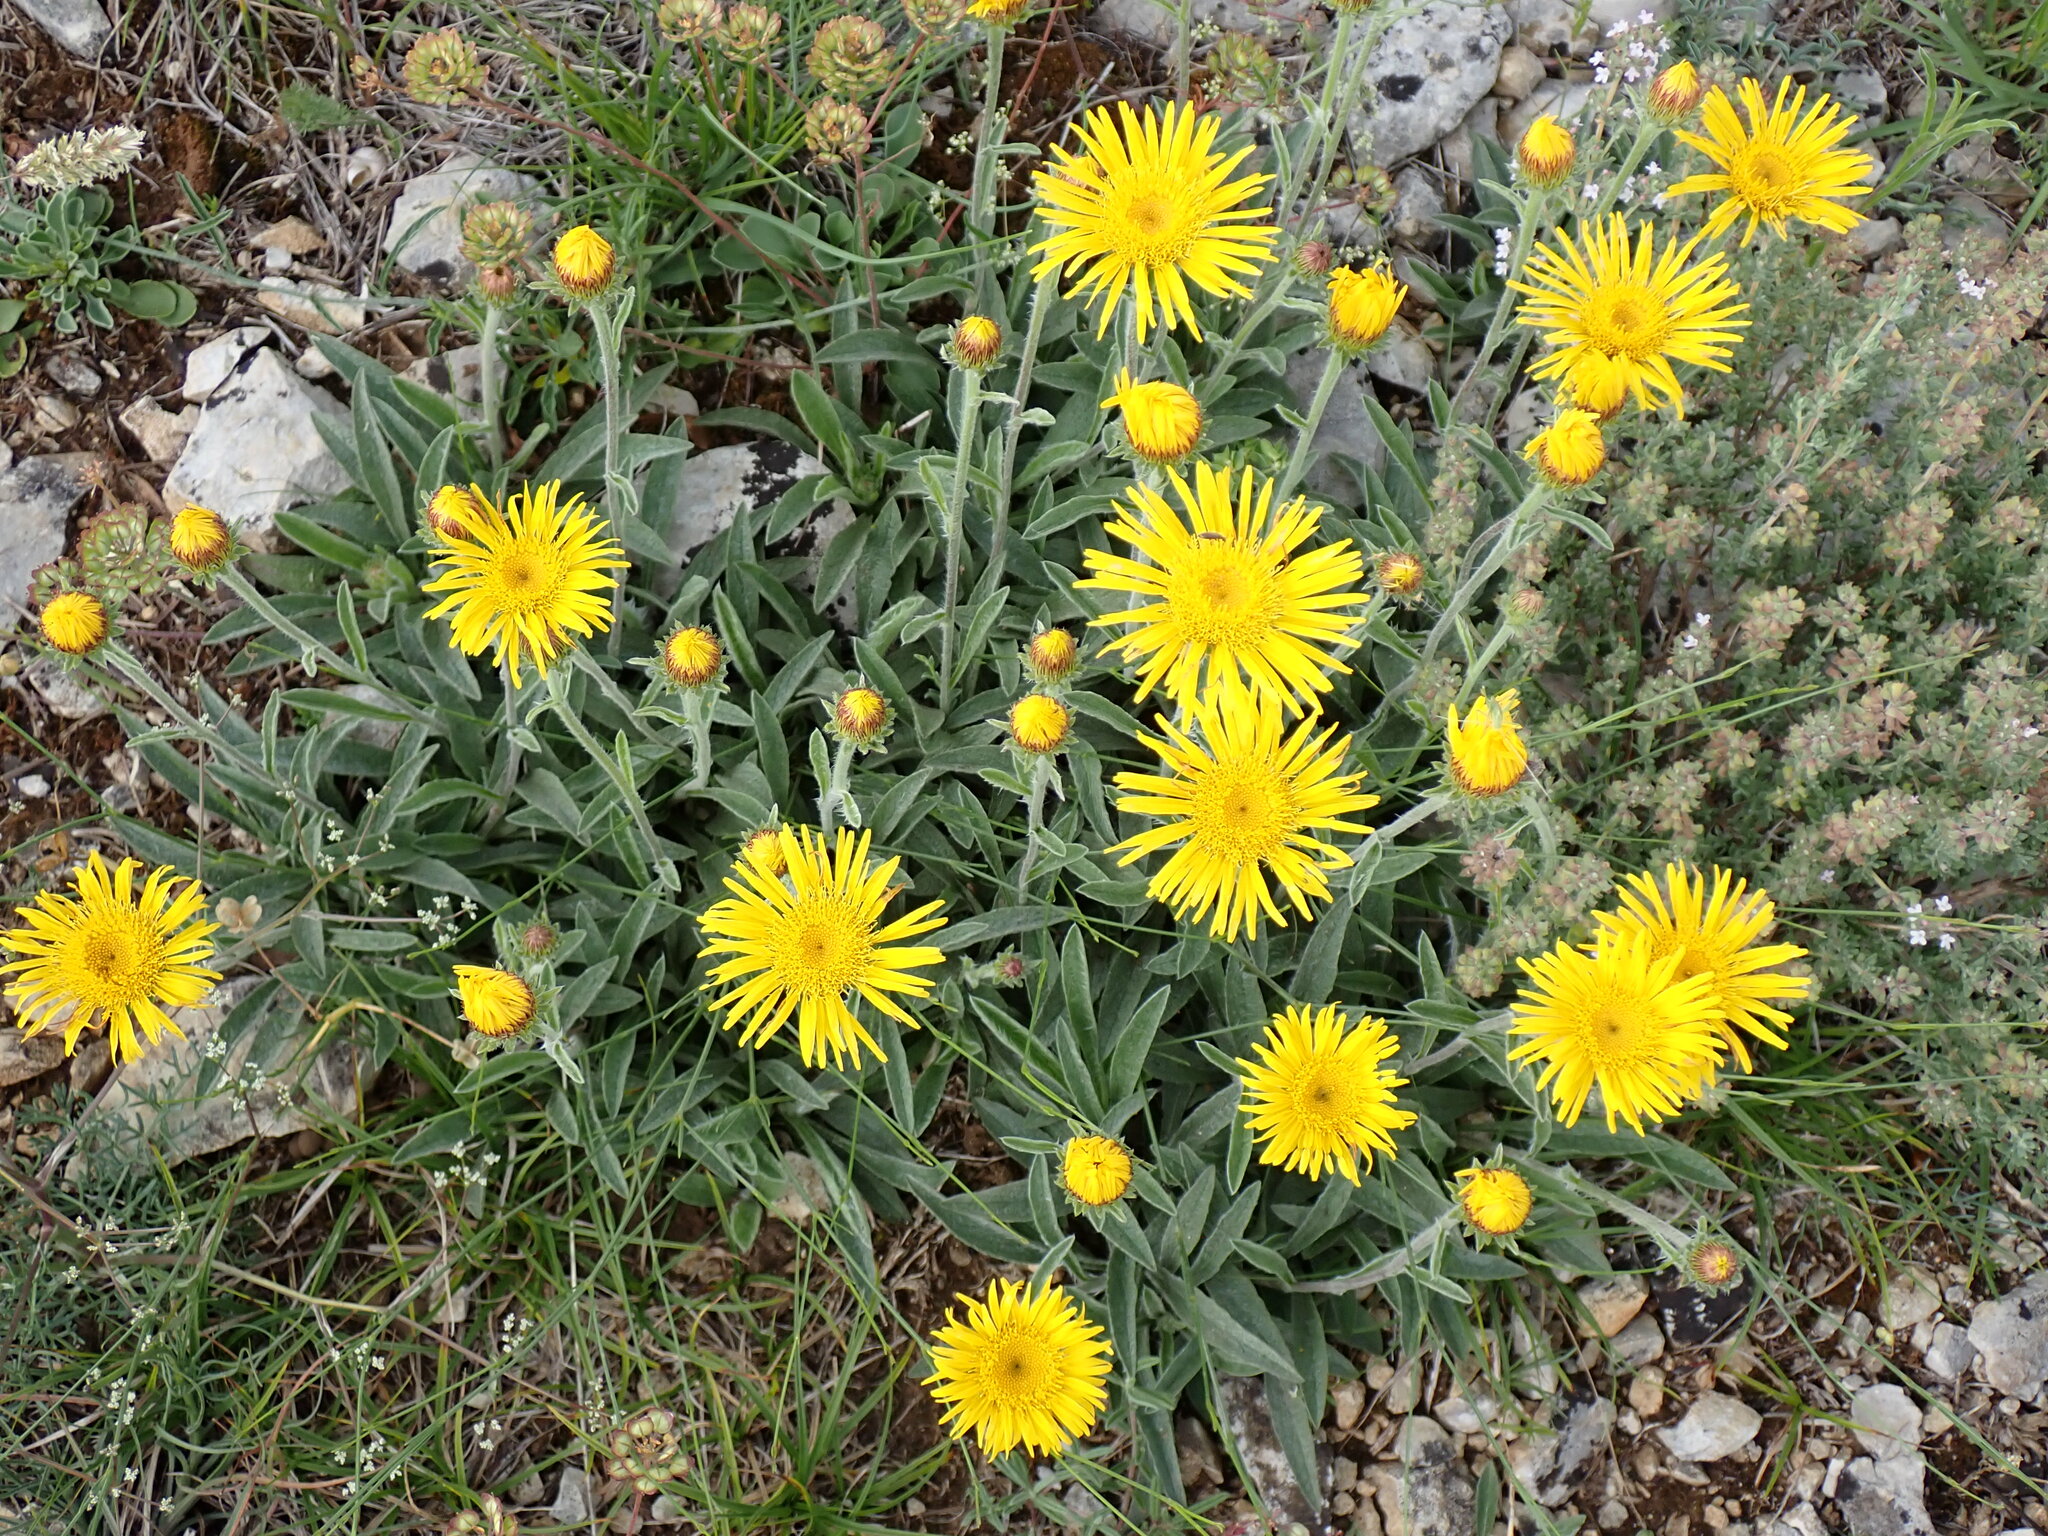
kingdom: Plantae
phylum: Tracheophyta
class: Magnoliopsida
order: Asterales
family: Asteraceae
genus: Pentanema
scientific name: Pentanema montanum
